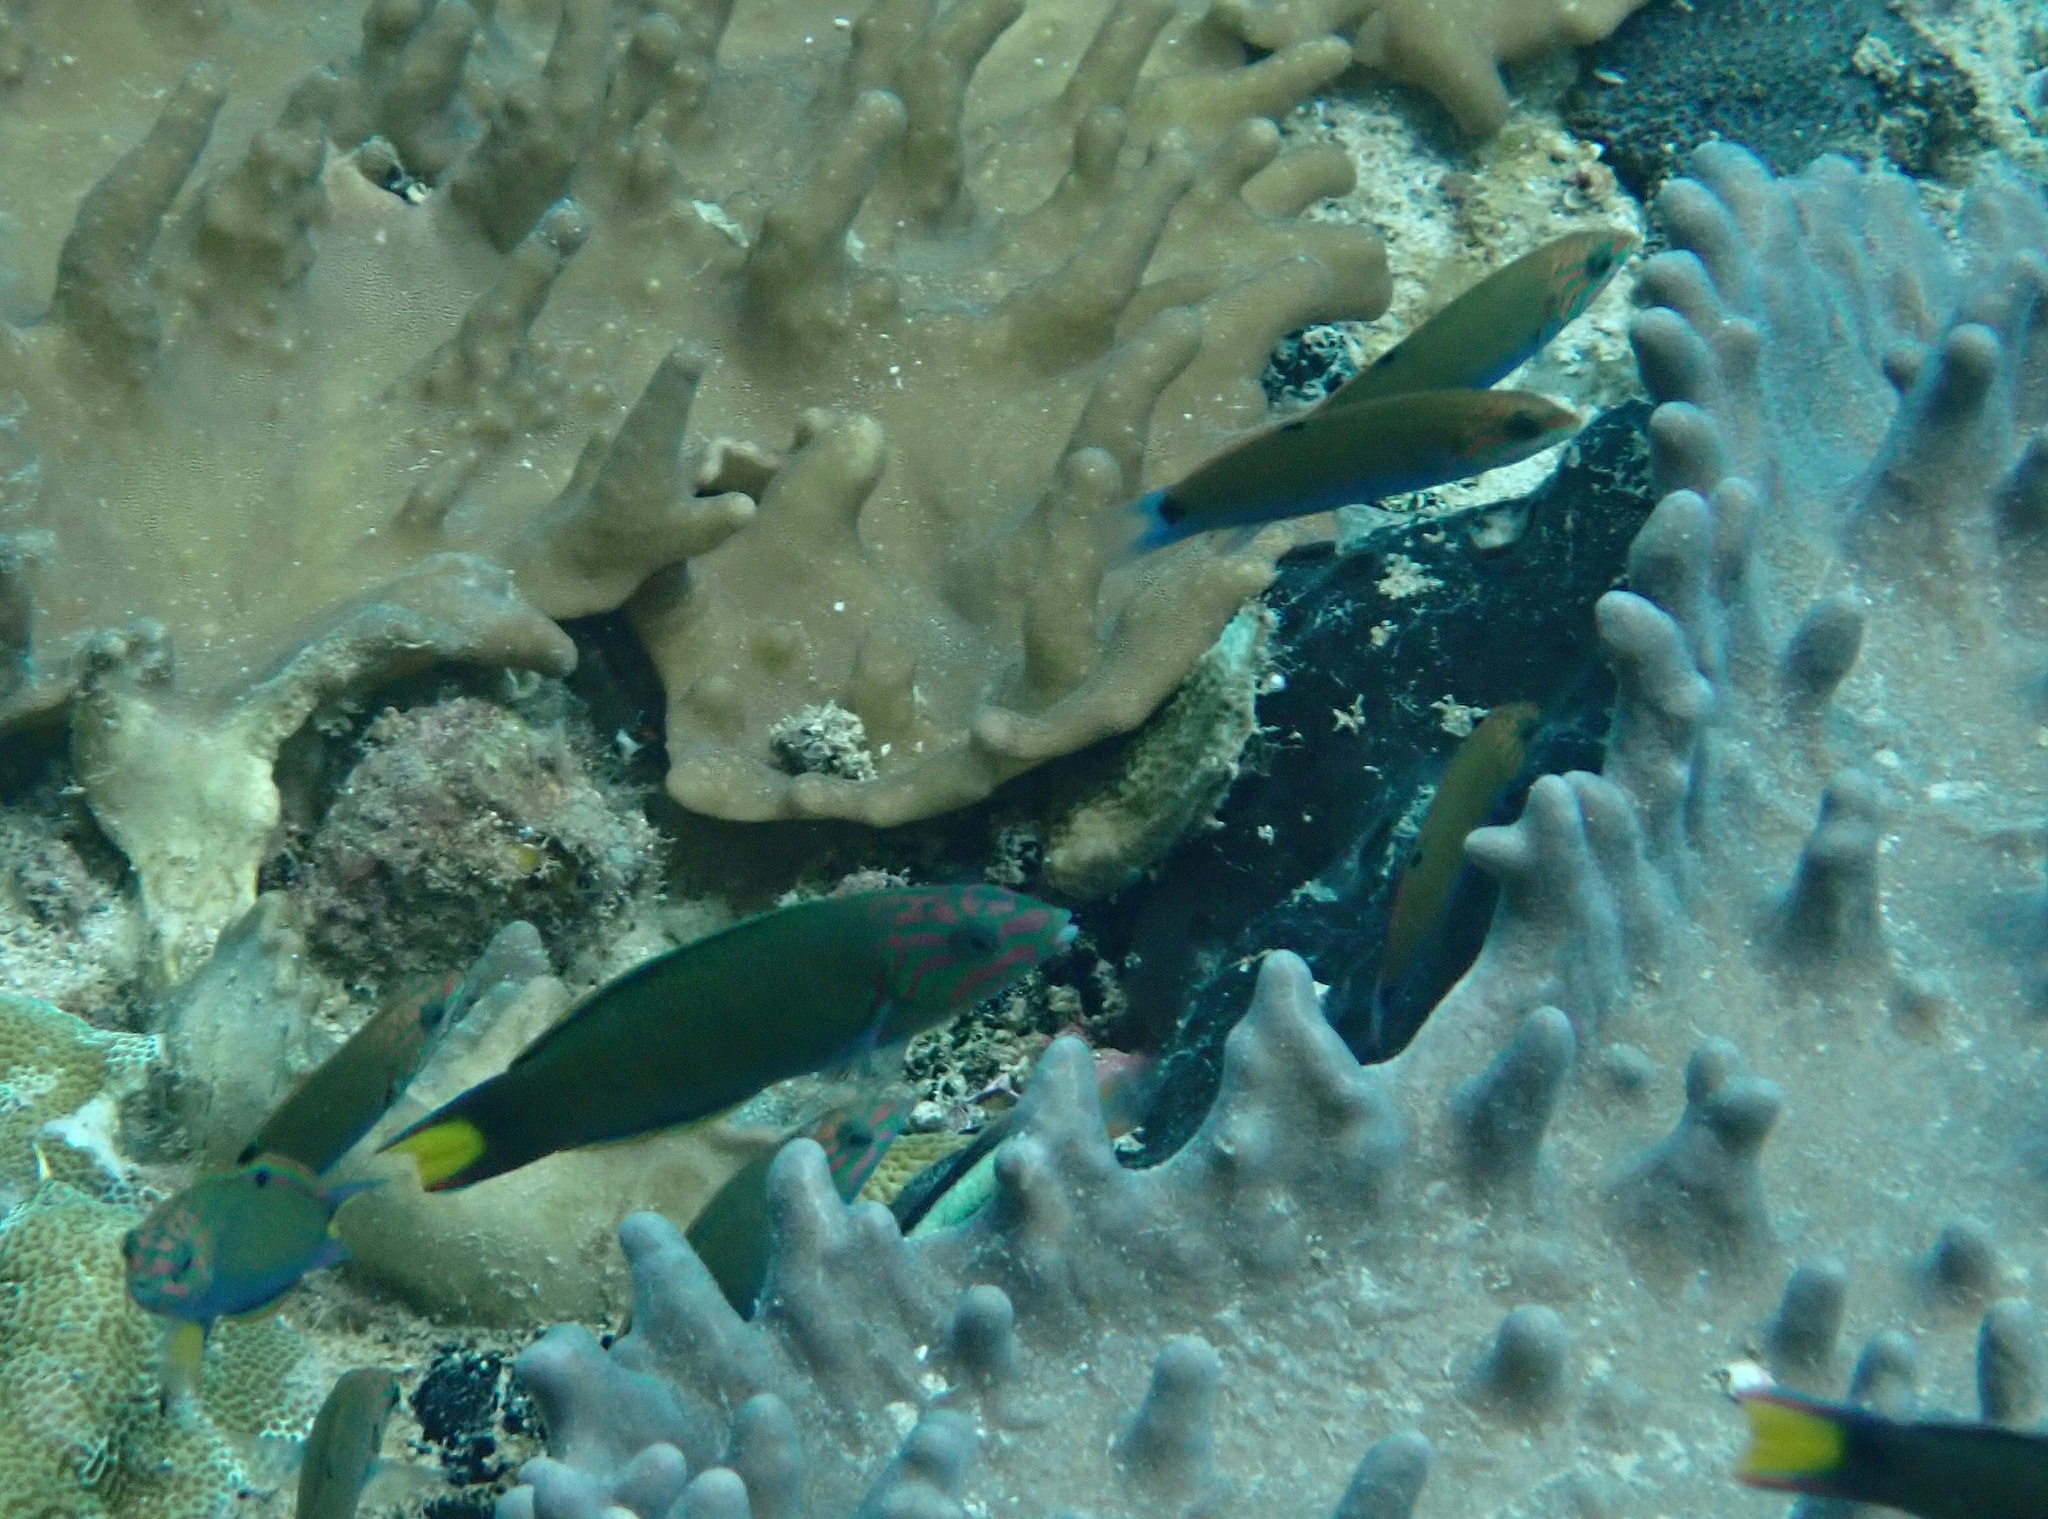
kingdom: Animalia
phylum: Chordata
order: Perciformes
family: Labridae
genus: Thalassoma
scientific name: Thalassoma lunare
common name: Blue wrasse
